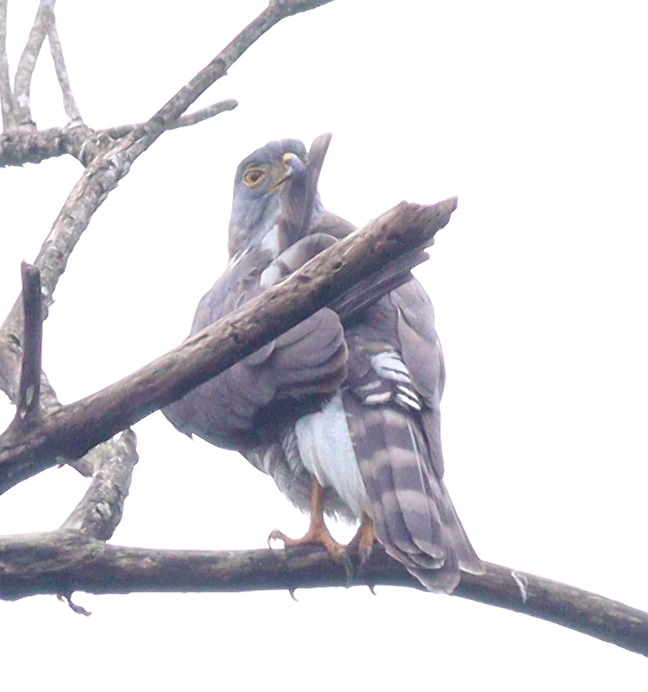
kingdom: Animalia
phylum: Chordata
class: Aves
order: Accipitriformes
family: Accipitridae
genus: Accipiter
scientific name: Accipiter trivirgatus
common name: Crested goshawk
